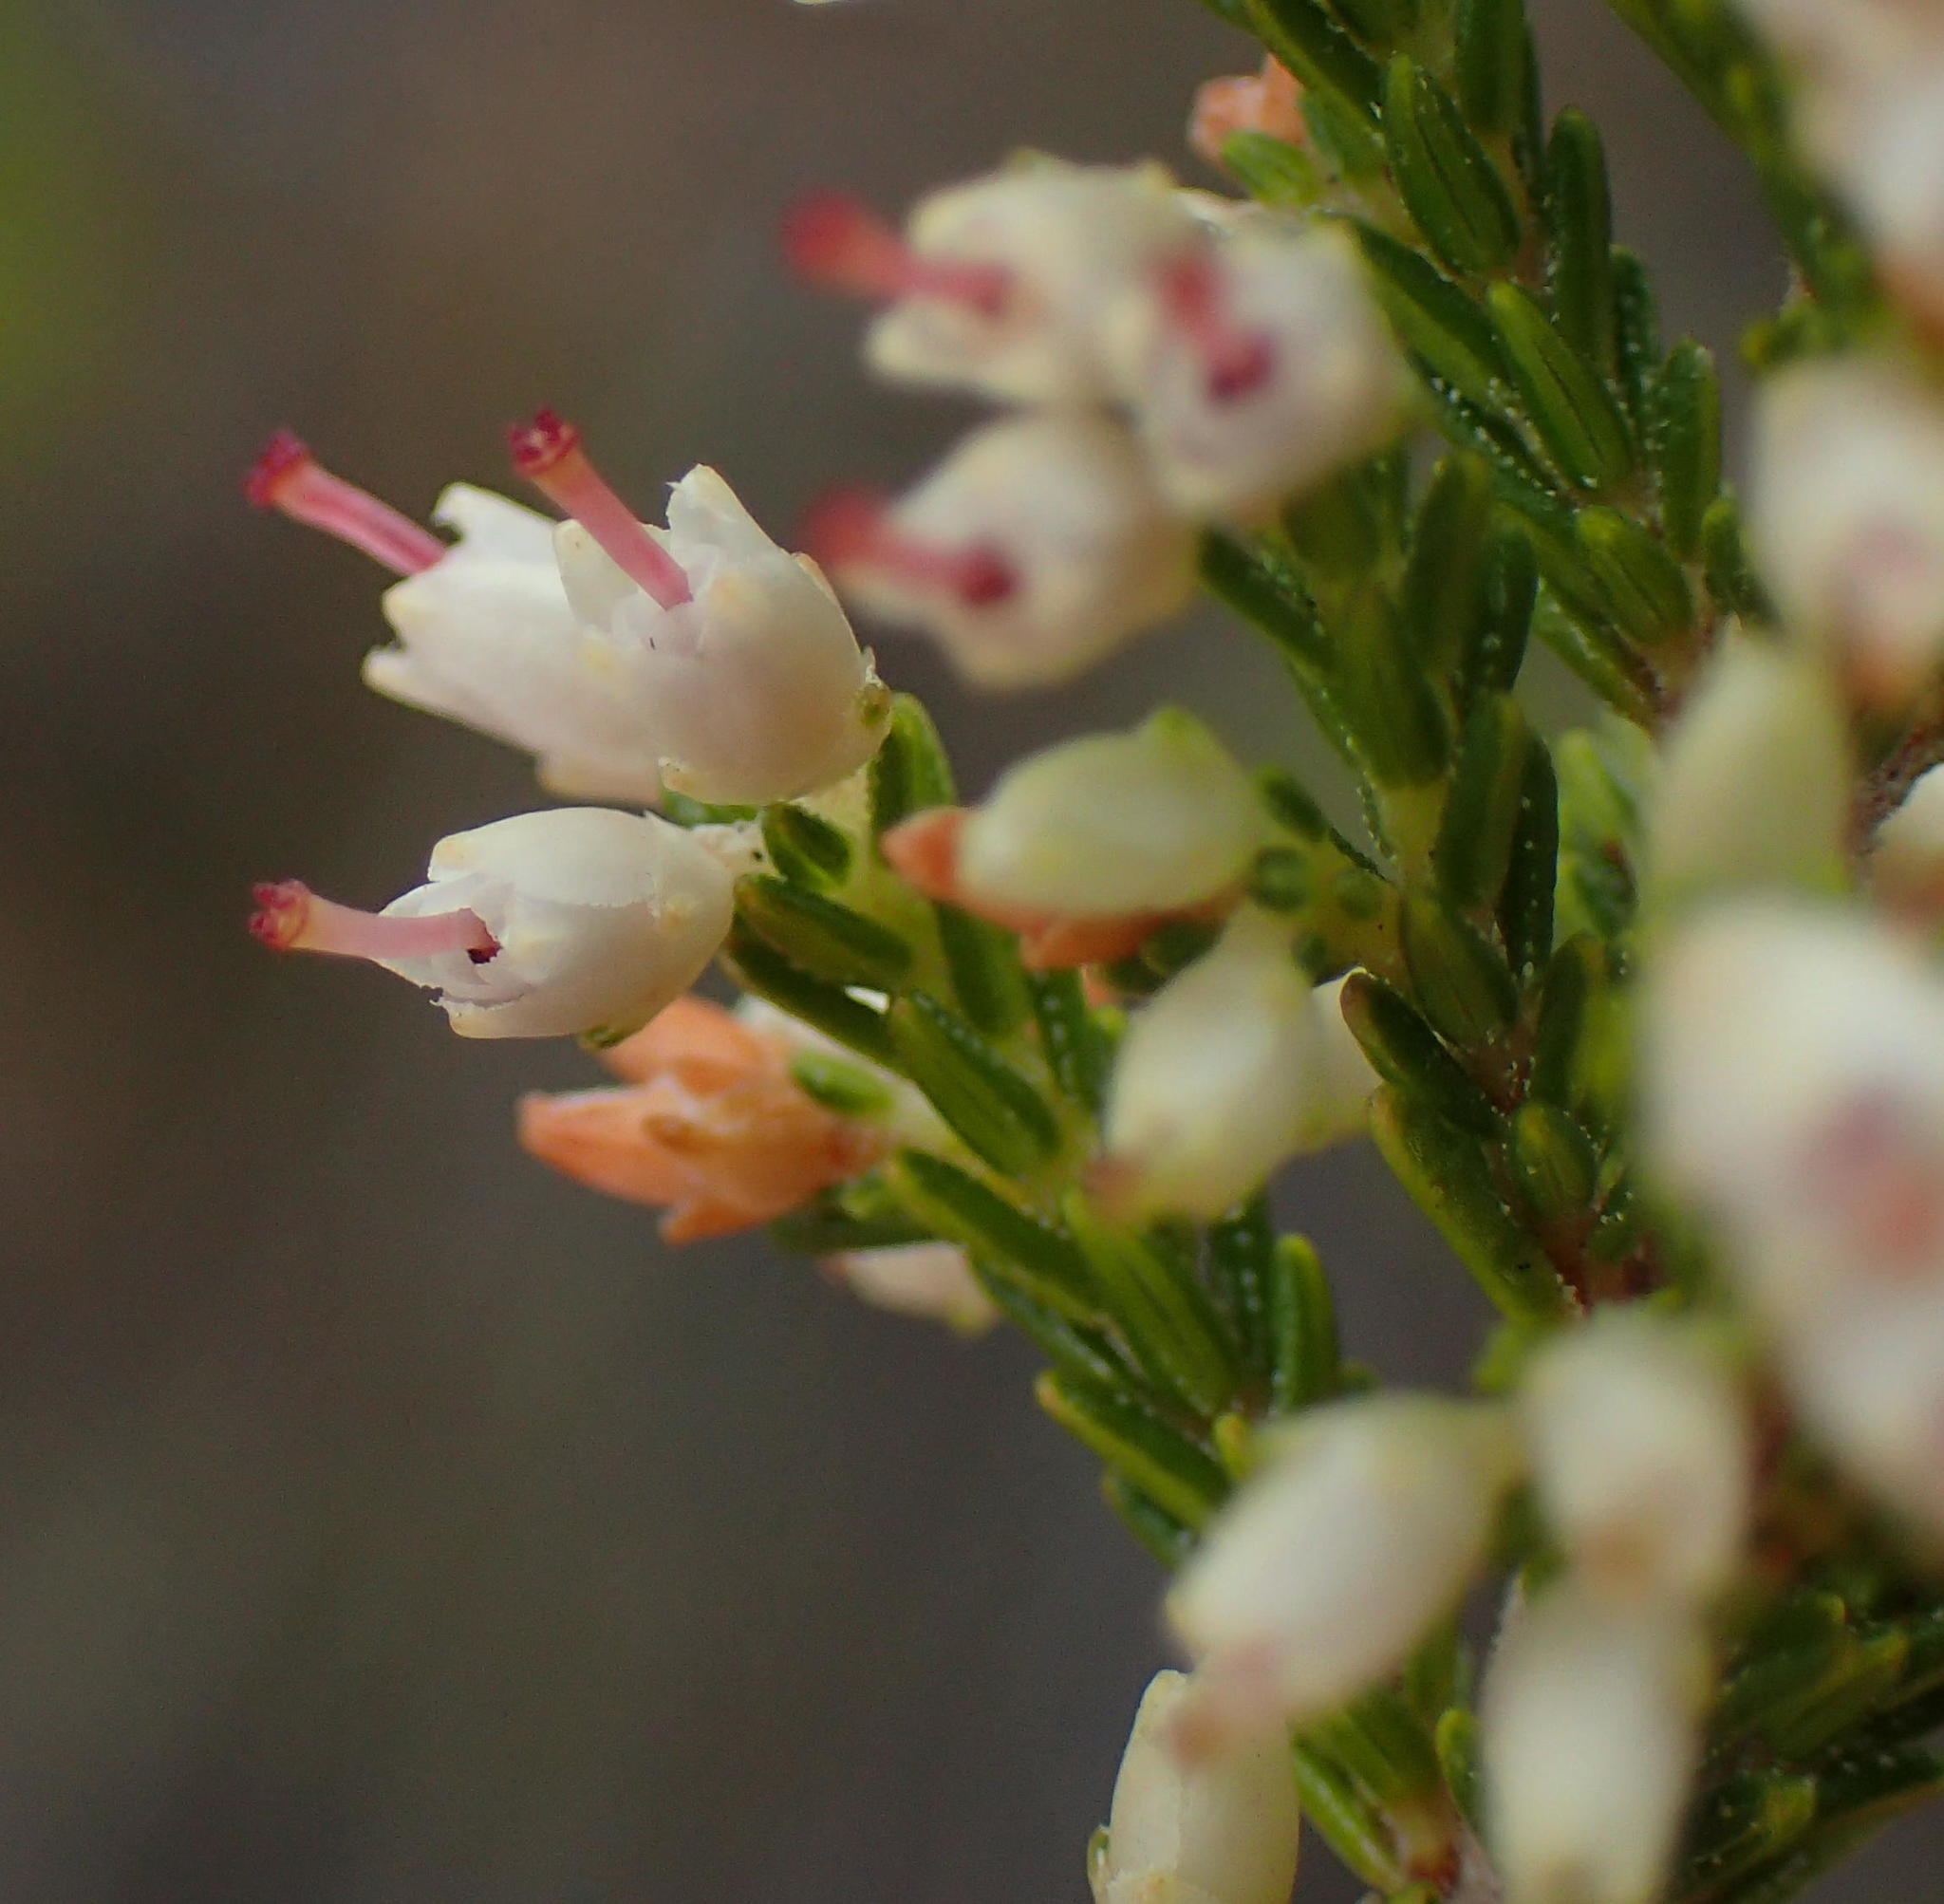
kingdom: Plantae
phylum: Tracheophyta
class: Magnoliopsida
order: Ericales
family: Ericaceae
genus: Erica
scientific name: Erica lasciva
